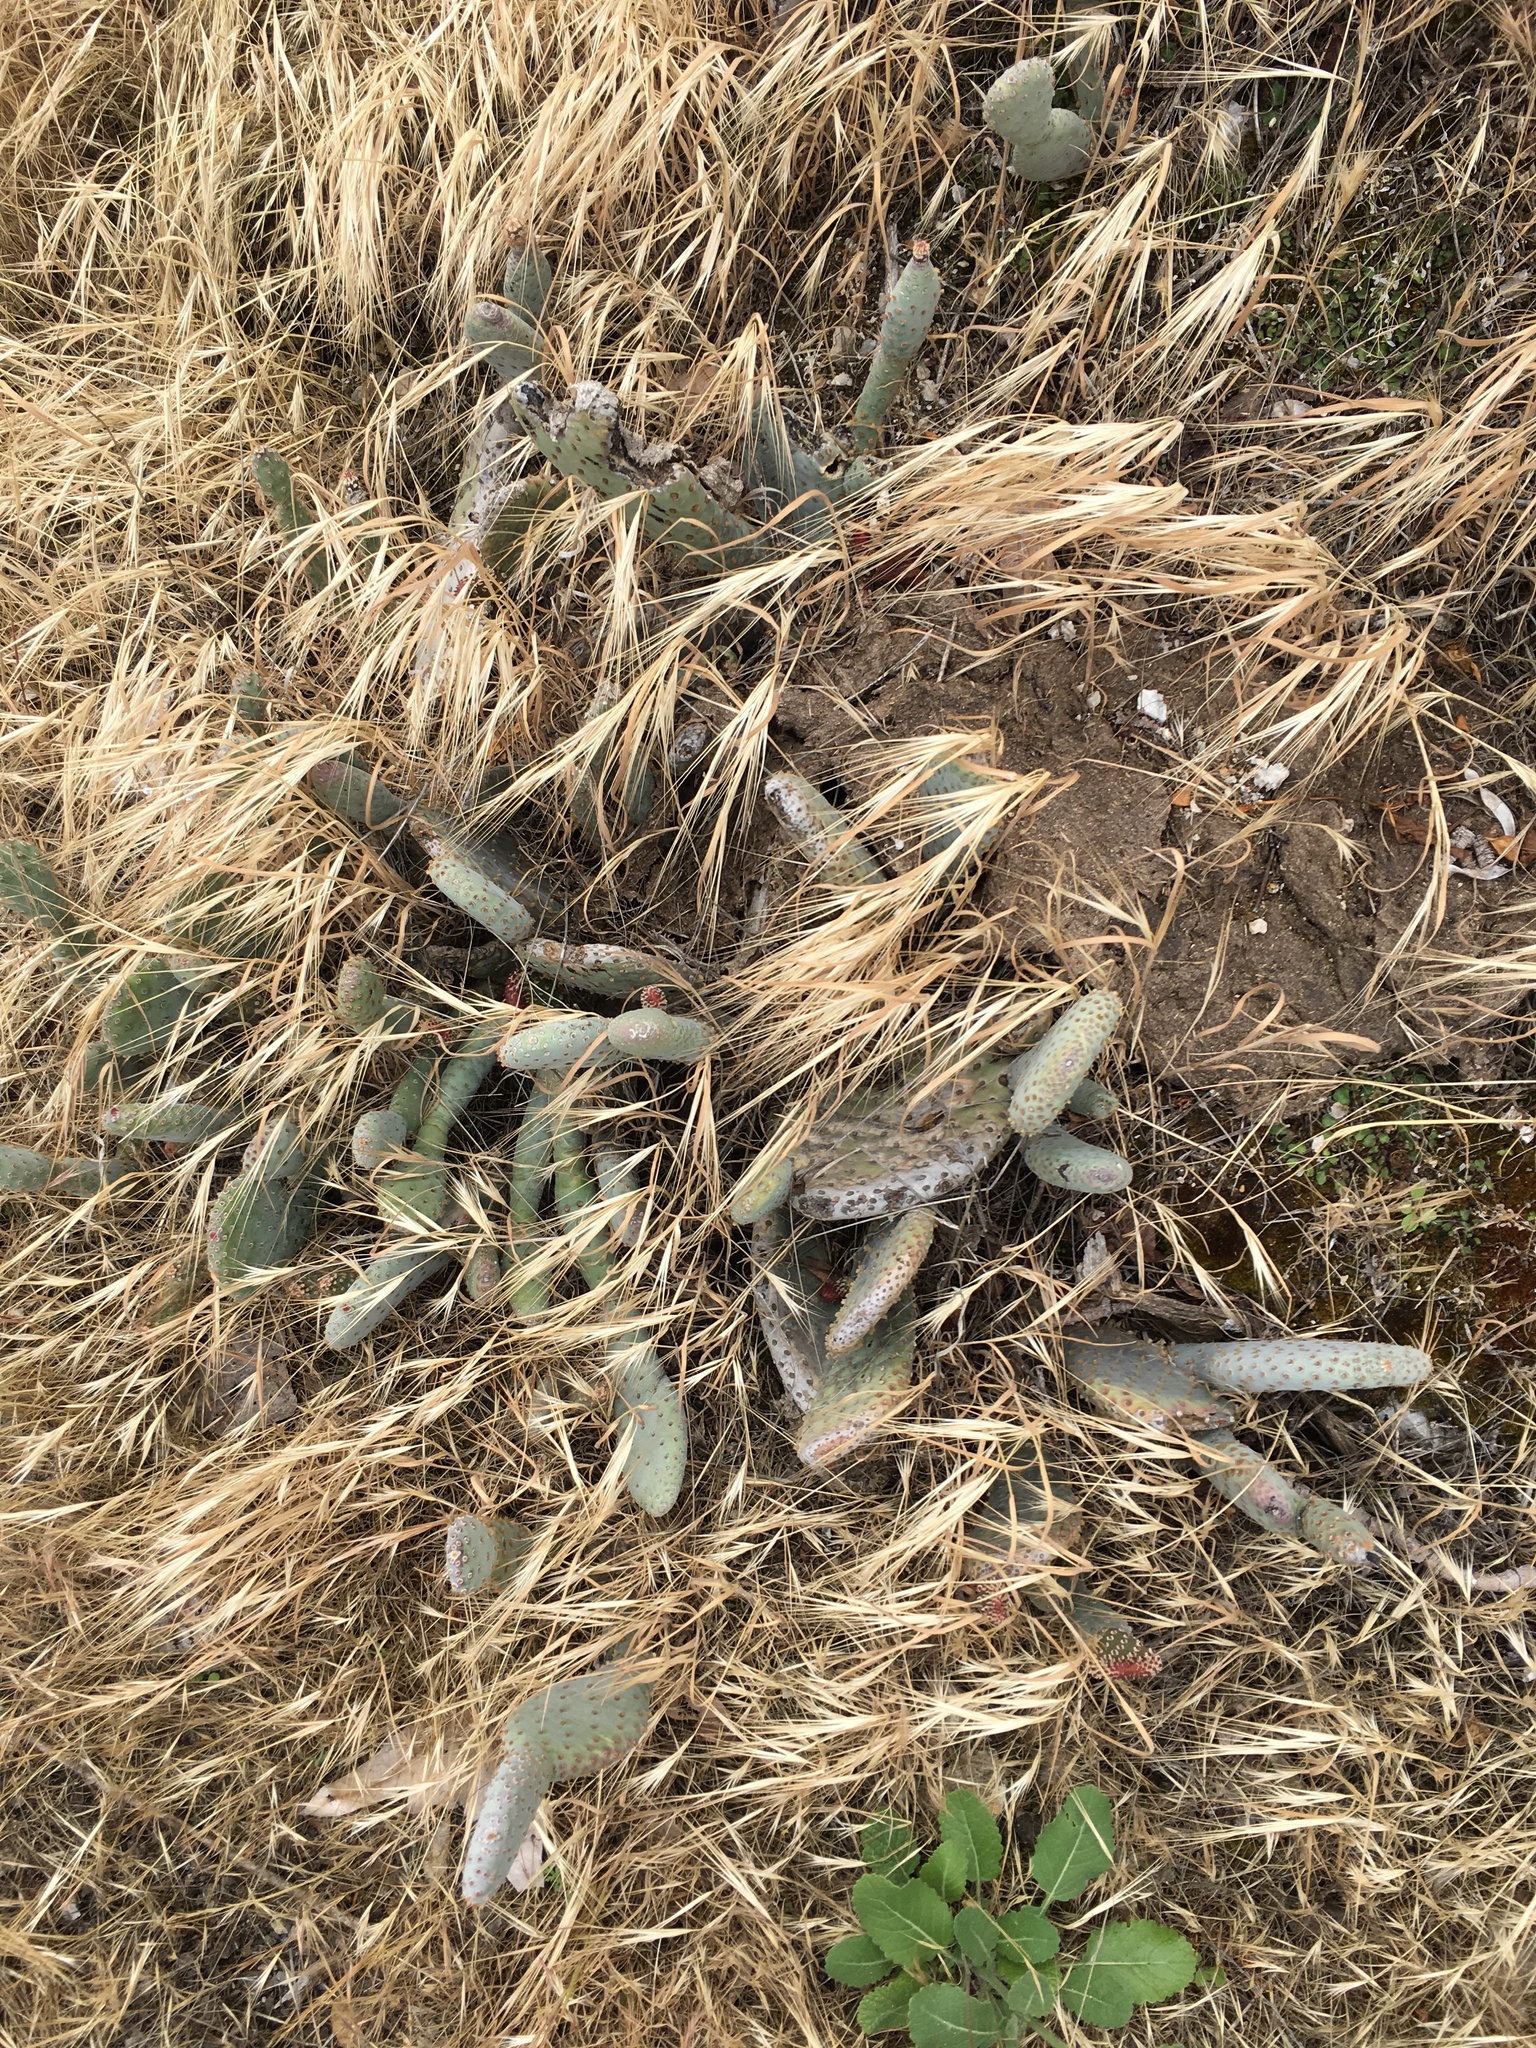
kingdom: Plantae
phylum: Tracheophyta
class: Magnoliopsida
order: Caryophyllales
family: Cactaceae
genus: Opuntia
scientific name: Opuntia basilaris
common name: Beavertail prickly-pear
